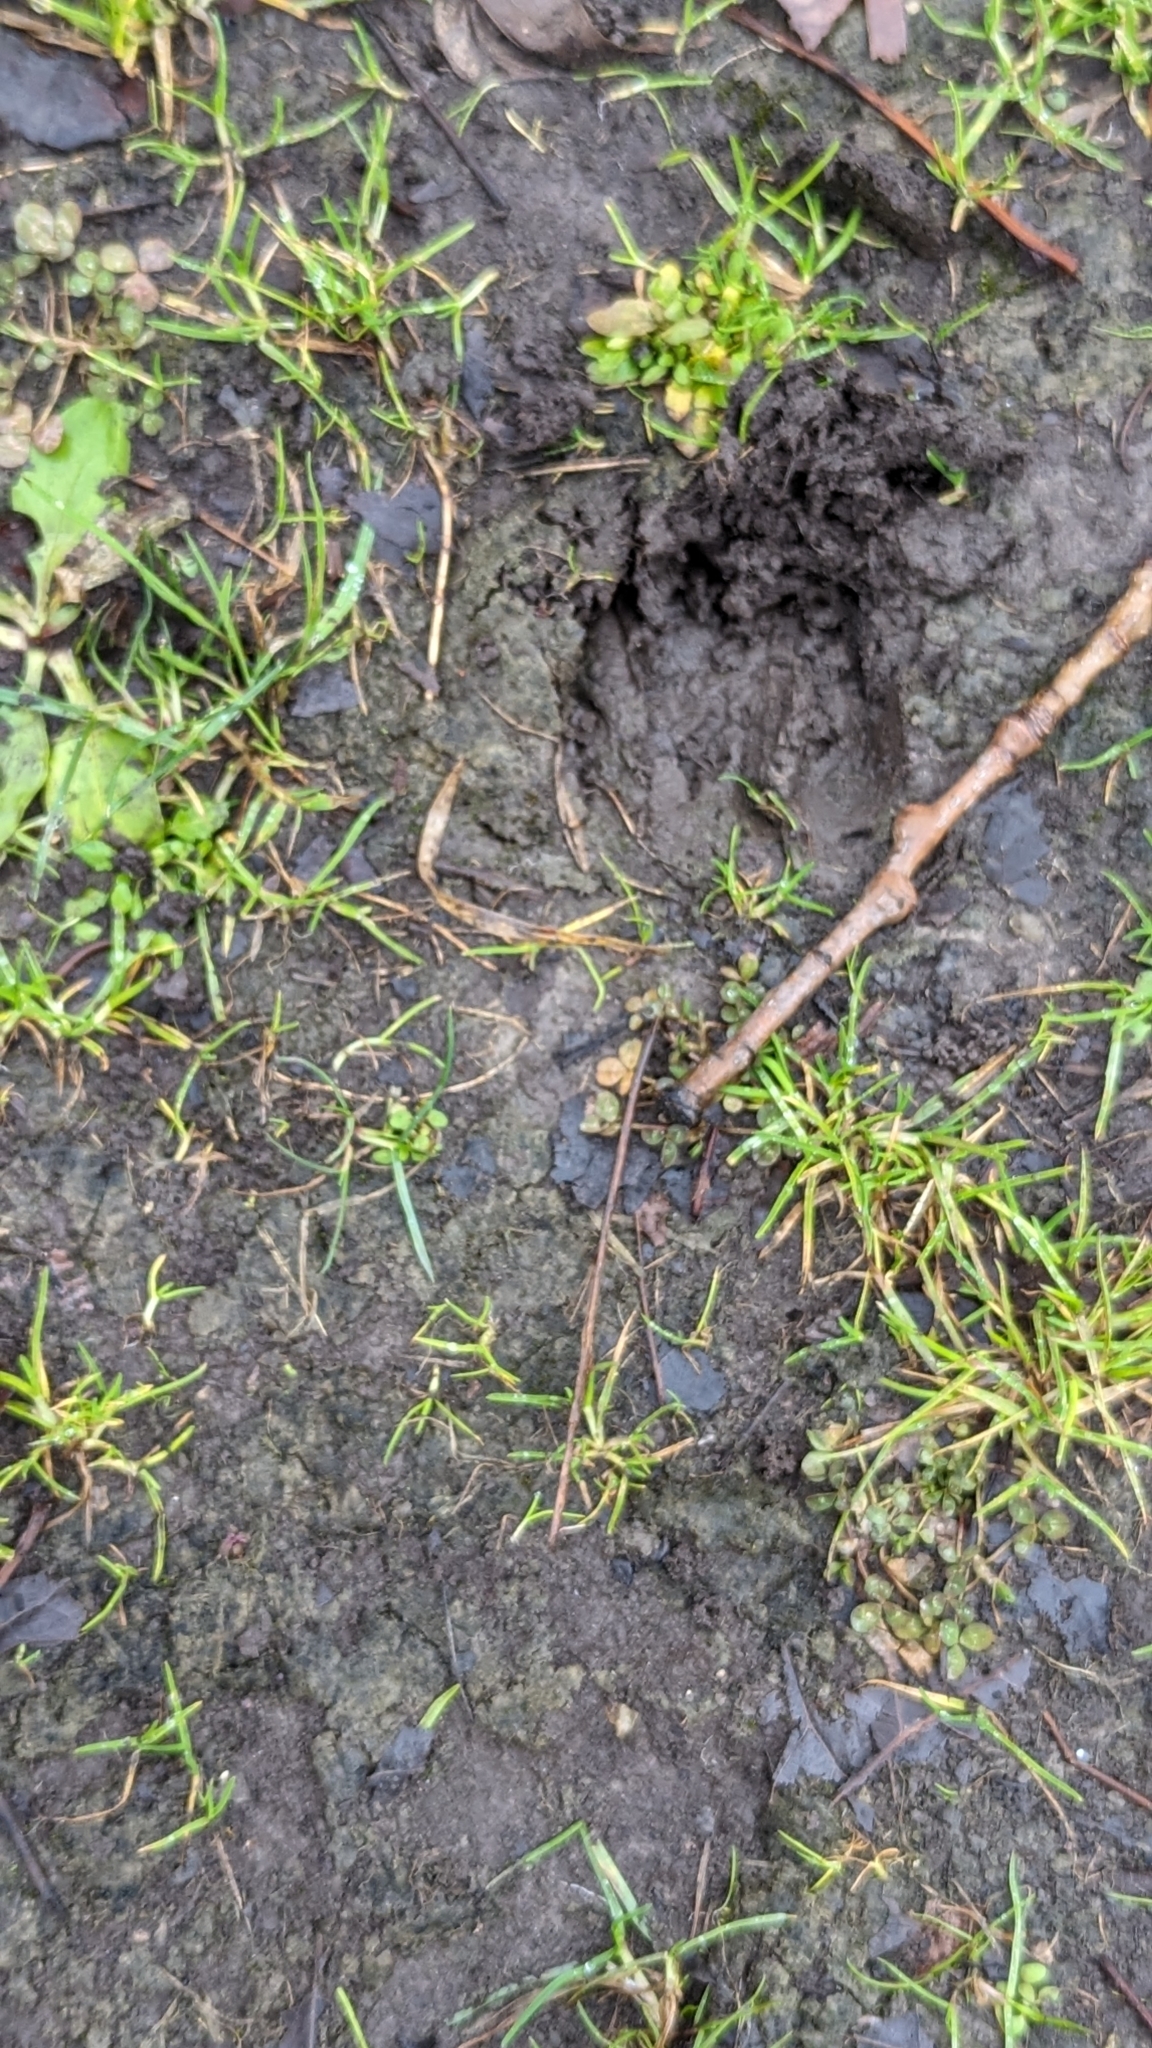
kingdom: Animalia
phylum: Chordata
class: Mammalia
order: Artiodactyla
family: Cervidae
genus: Odocoileus
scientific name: Odocoileus virginianus
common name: White-tailed deer
